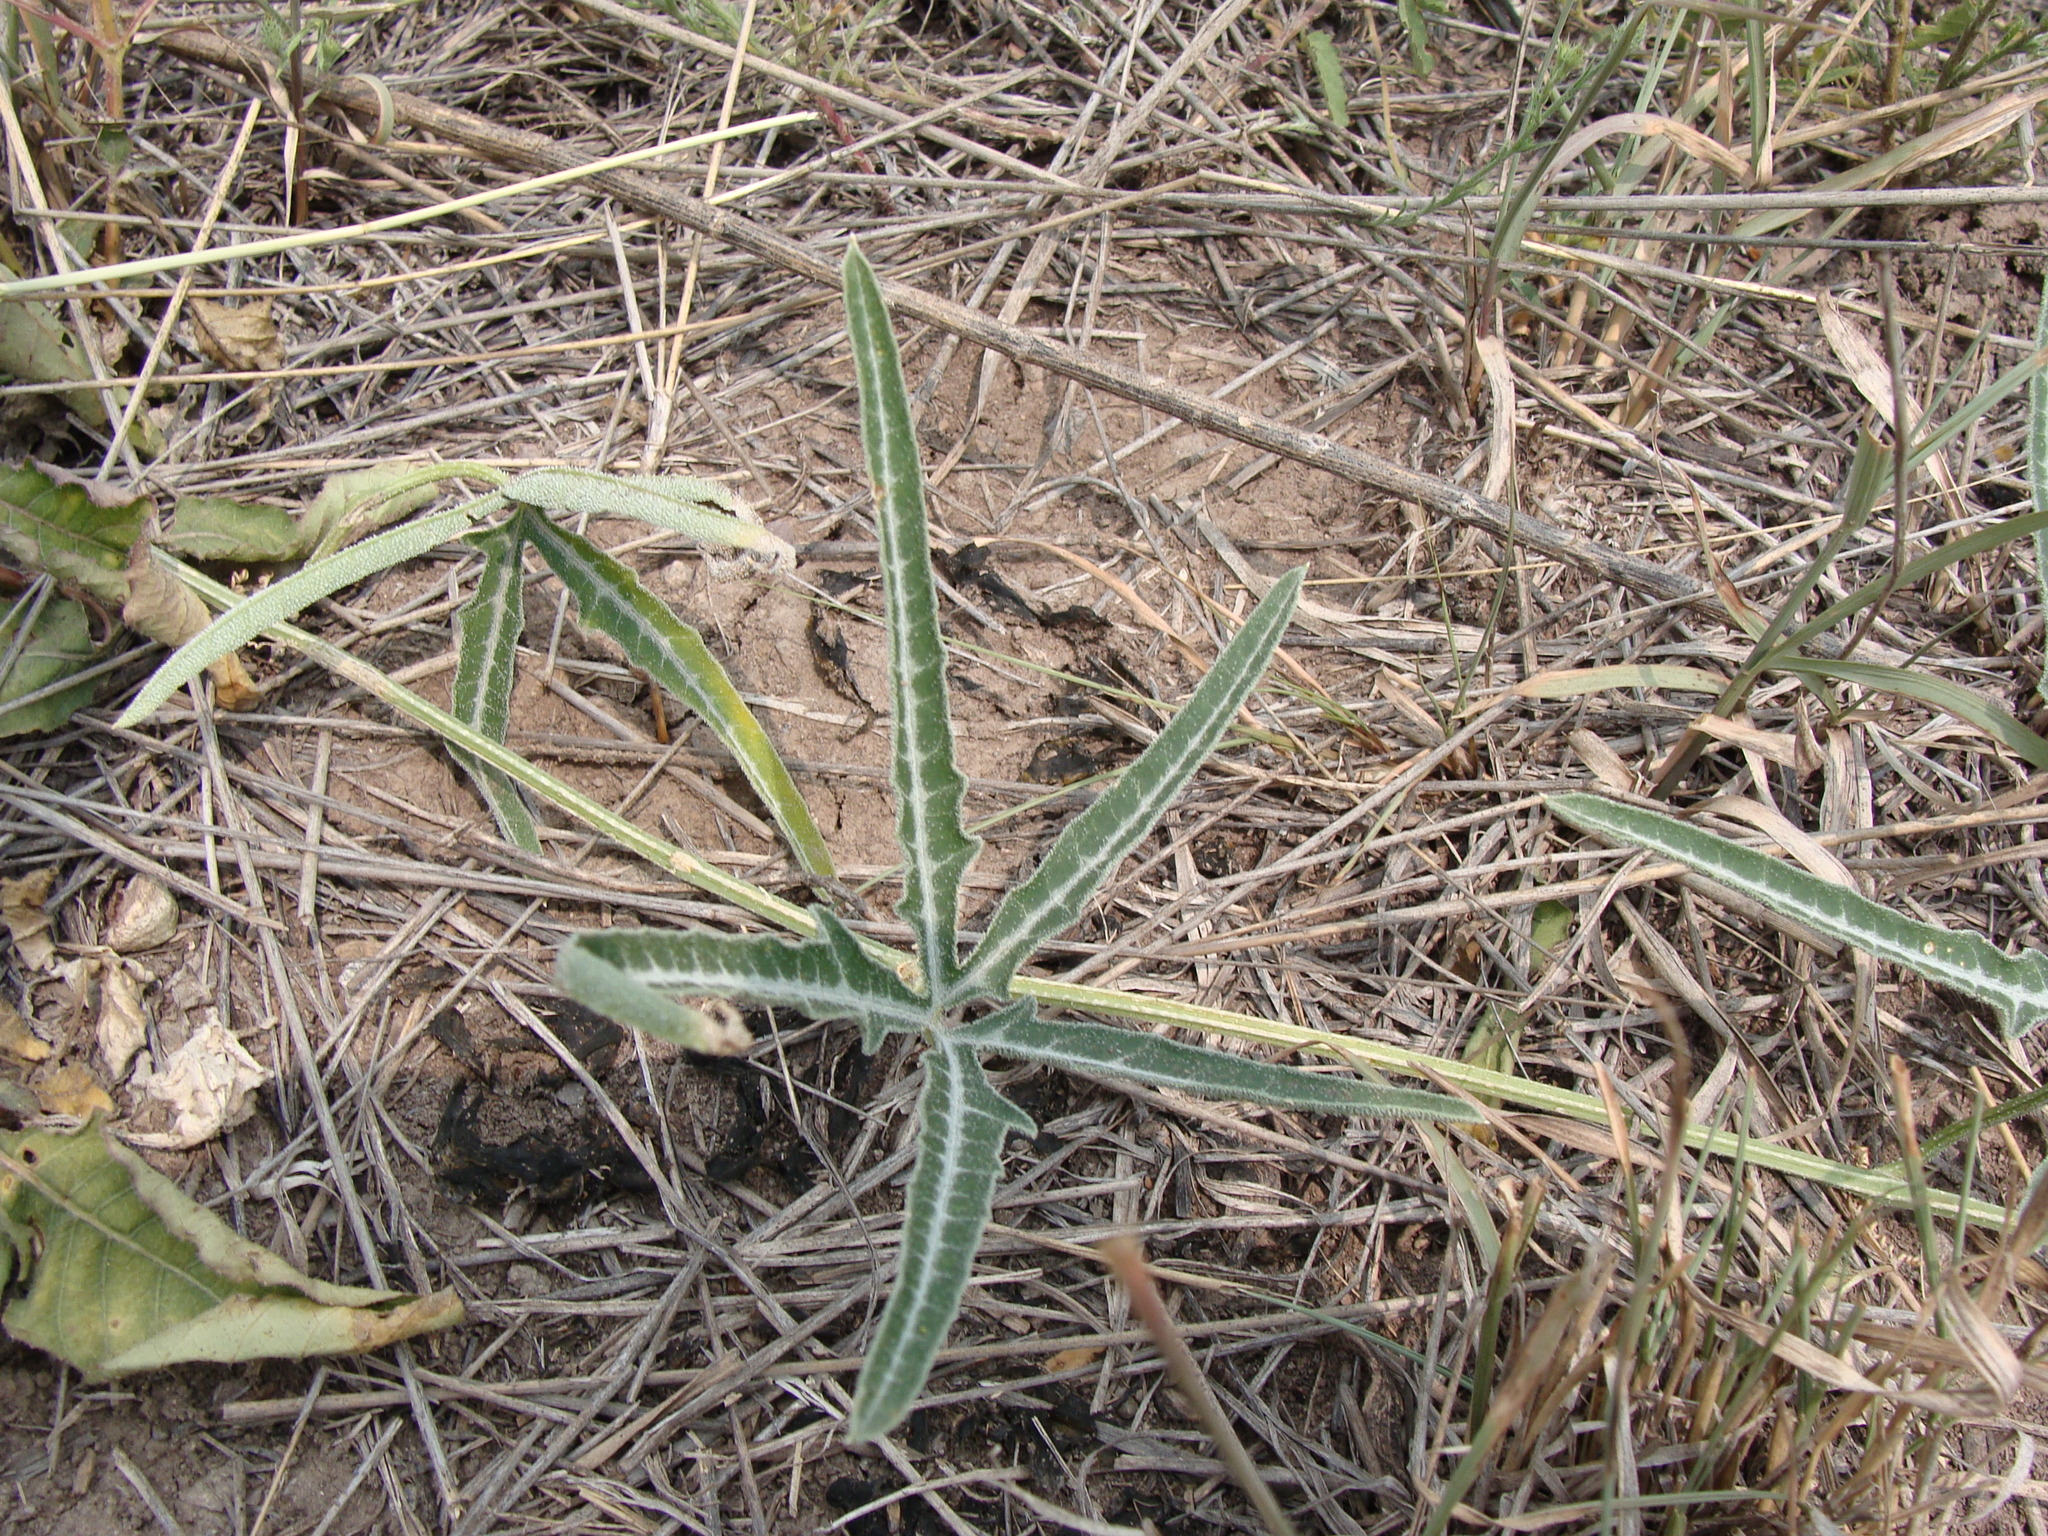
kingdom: Plantae
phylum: Tracheophyta
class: Magnoliopsida
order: Cucurbitales
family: Cucurbitaceae
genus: Cucurbita
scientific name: Cucurbita digitata
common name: Finger-leaf gourd
